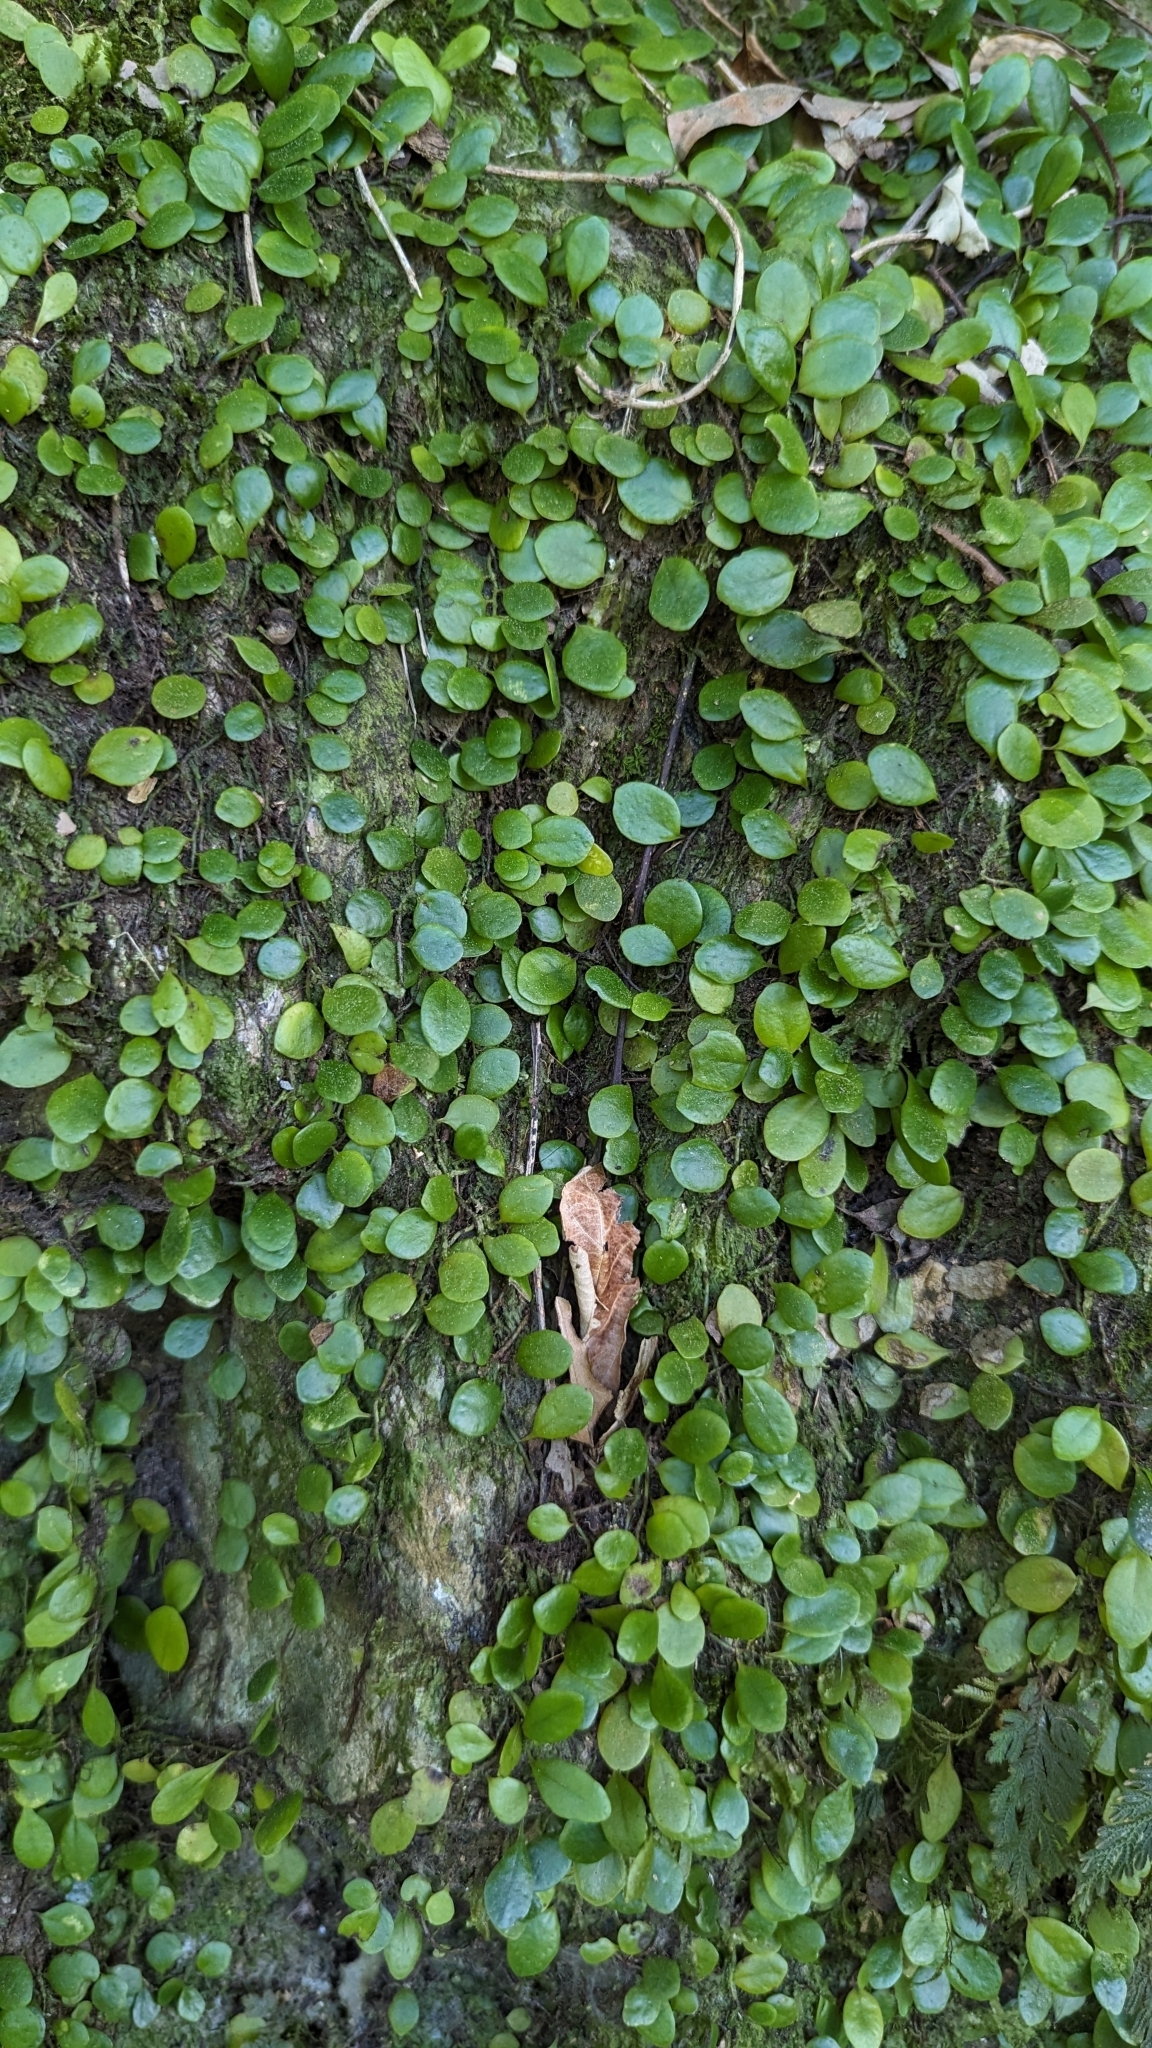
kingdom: Plantae
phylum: Tracheophyta
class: Polypodiopsida
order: Polypodiales
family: Polypodiaceae
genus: Lepisorus
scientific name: Lepisorus microphyllus
